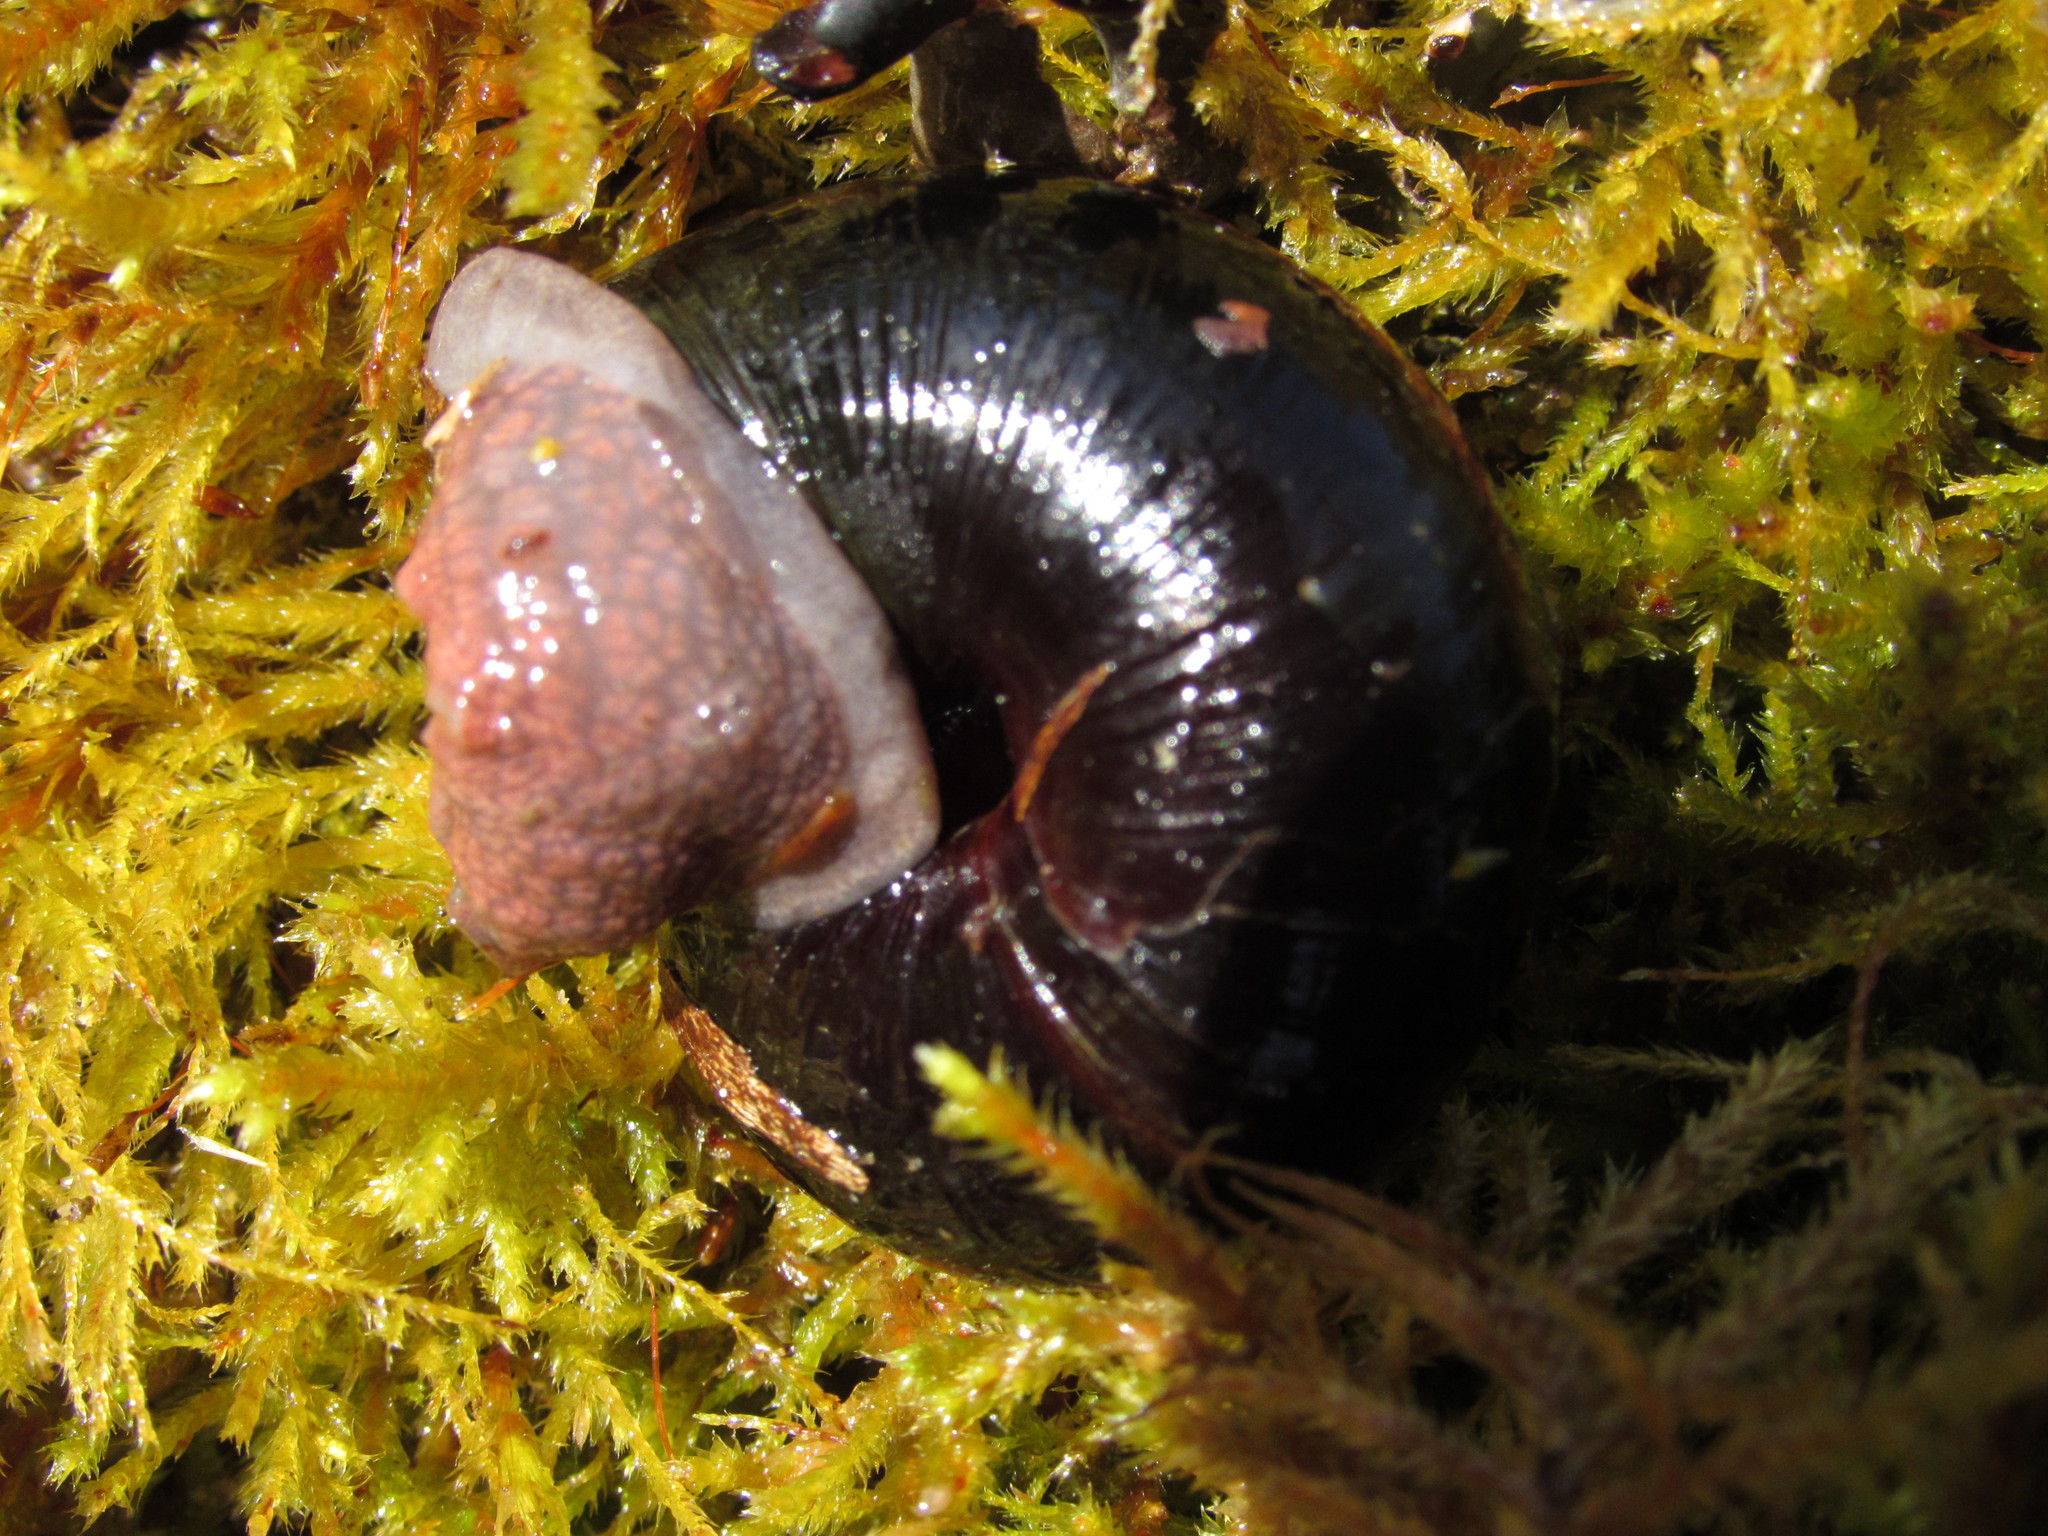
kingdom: Animalia
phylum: Mollusca
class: Gastropoda
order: Stylommatophora
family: Xanthonychidae
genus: Monadenia
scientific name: Monadenia fidelis
